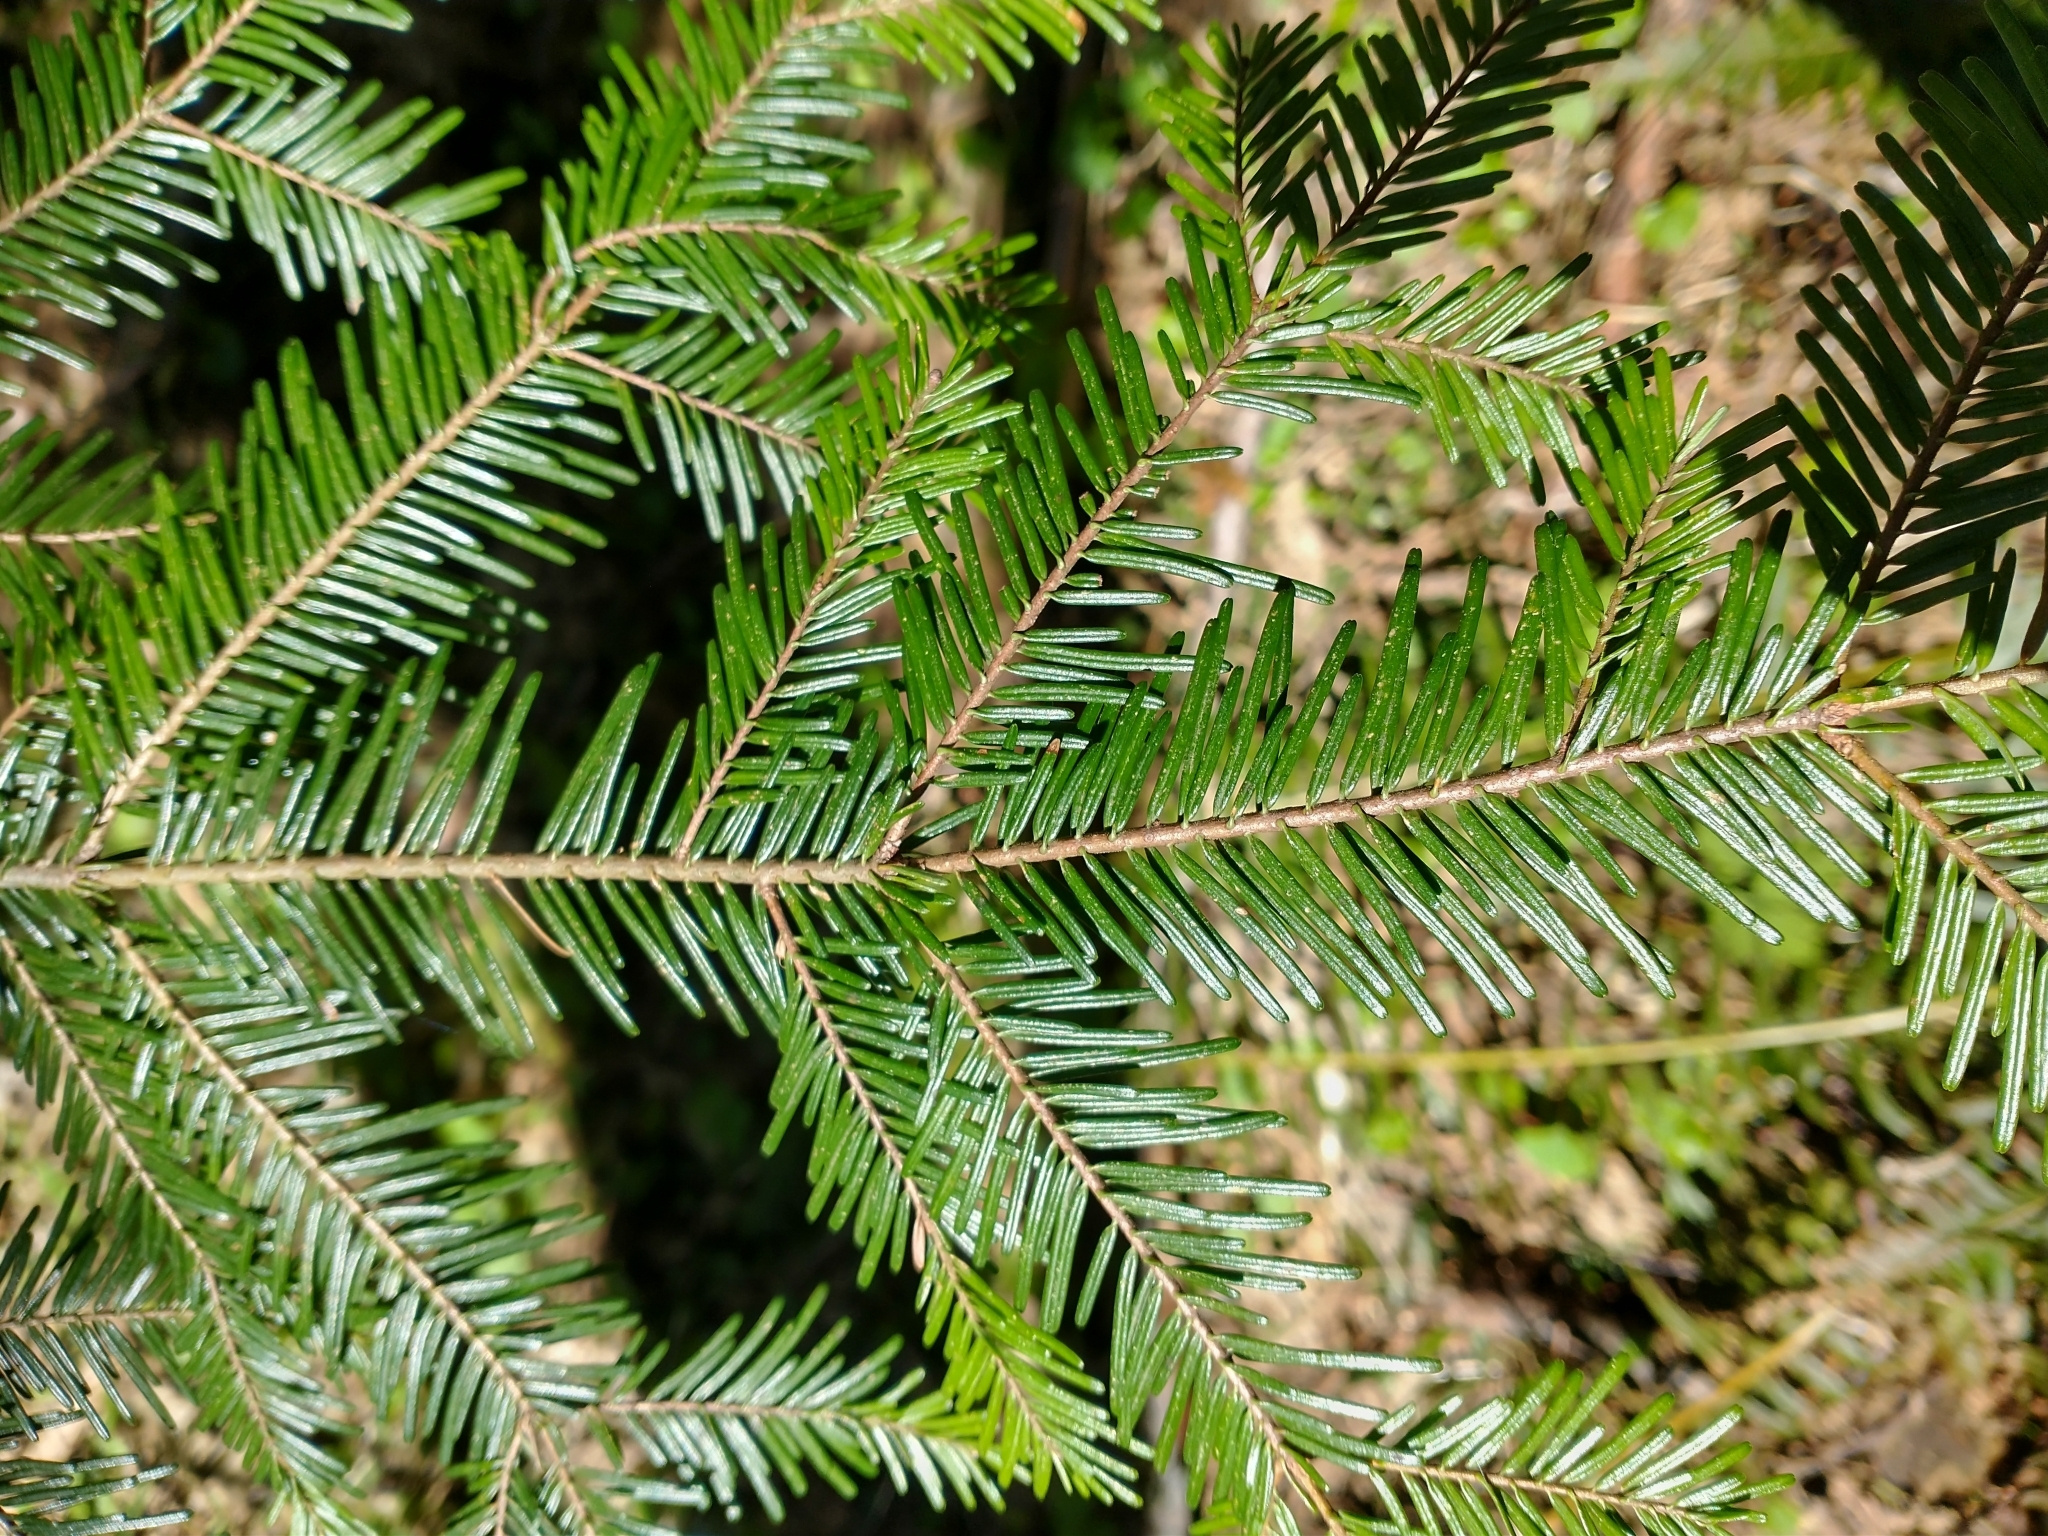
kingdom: Plantae
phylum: Tracheophyta
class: Pinopsida
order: Pinales
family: Pinaceae
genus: Abies
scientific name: Abies grandis
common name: Giant fir
